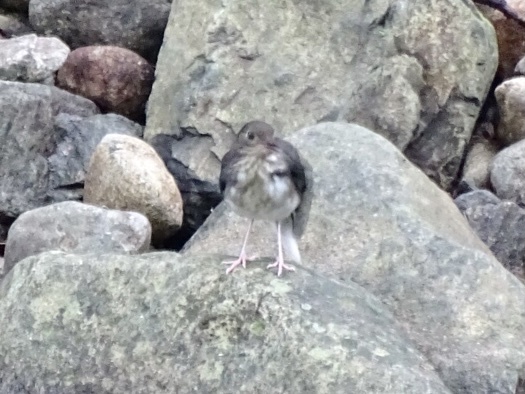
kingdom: Animalia
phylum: Chordata
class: Aves
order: Passeriformes
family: Muscicapidae
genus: Enicurus
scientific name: Enicurus schistaceus
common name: Slaty-backed forktail
